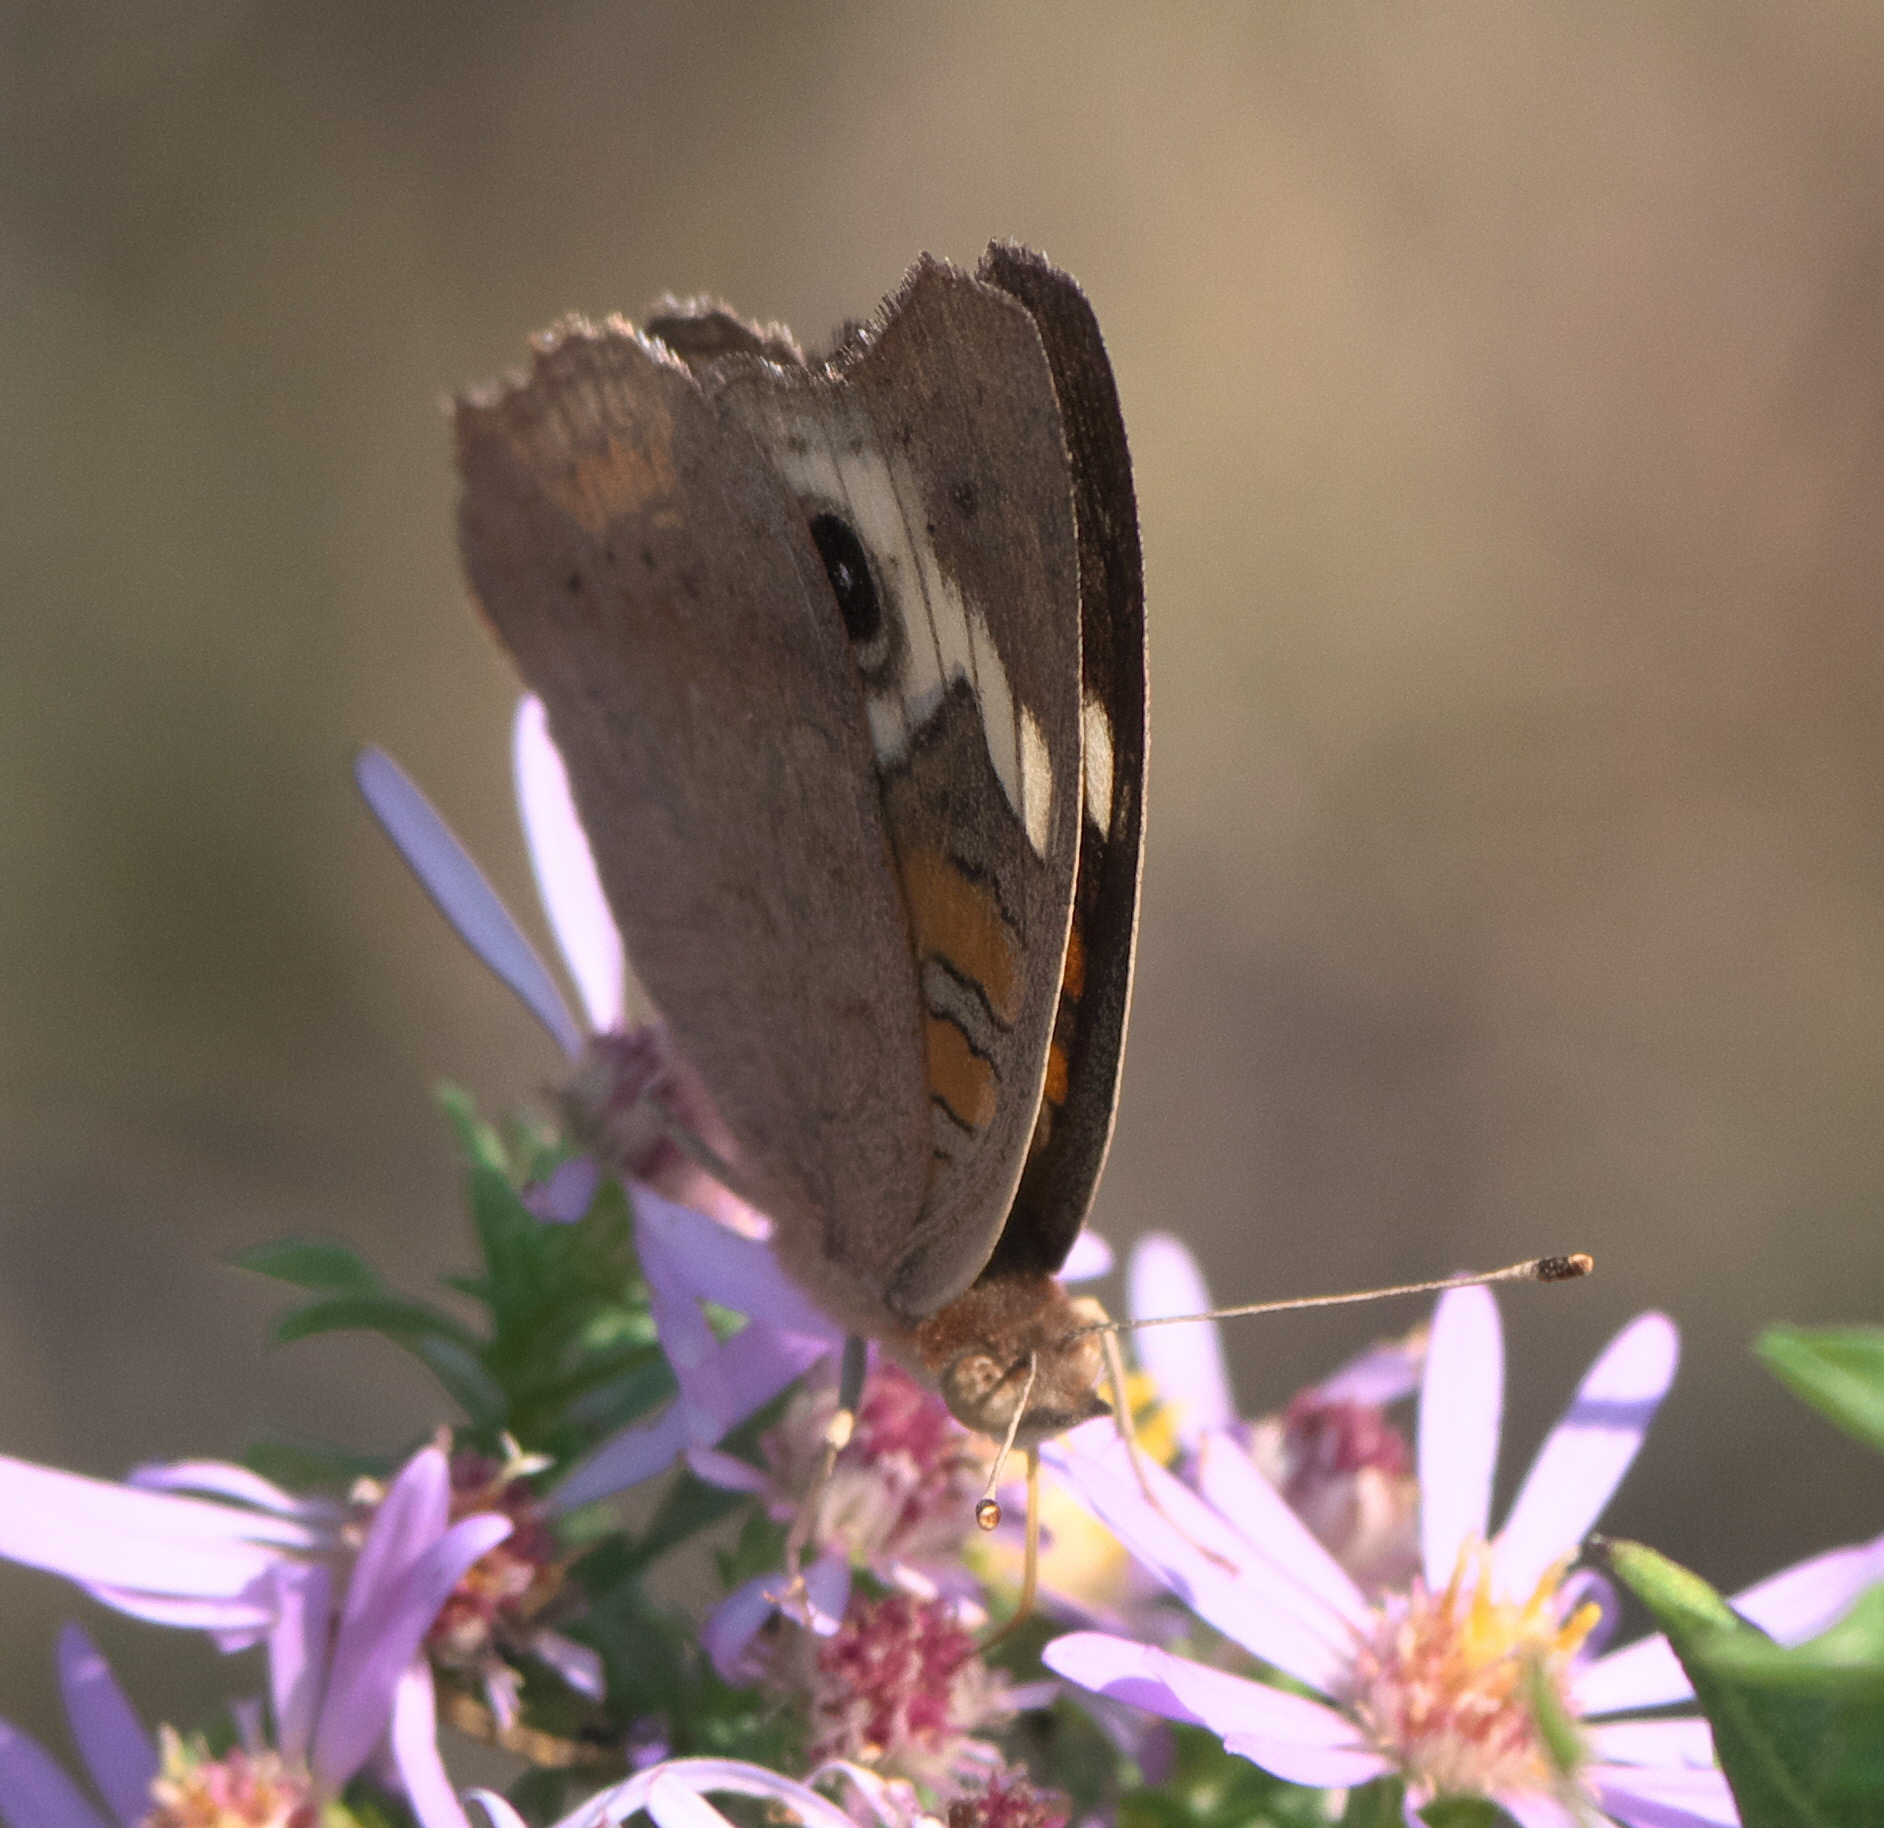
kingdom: Animalia
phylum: Arthropoda
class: Insecta
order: Lepidoptera
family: Nymphalidae
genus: Junonia
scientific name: Junonia coenia
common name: Common buckeye
